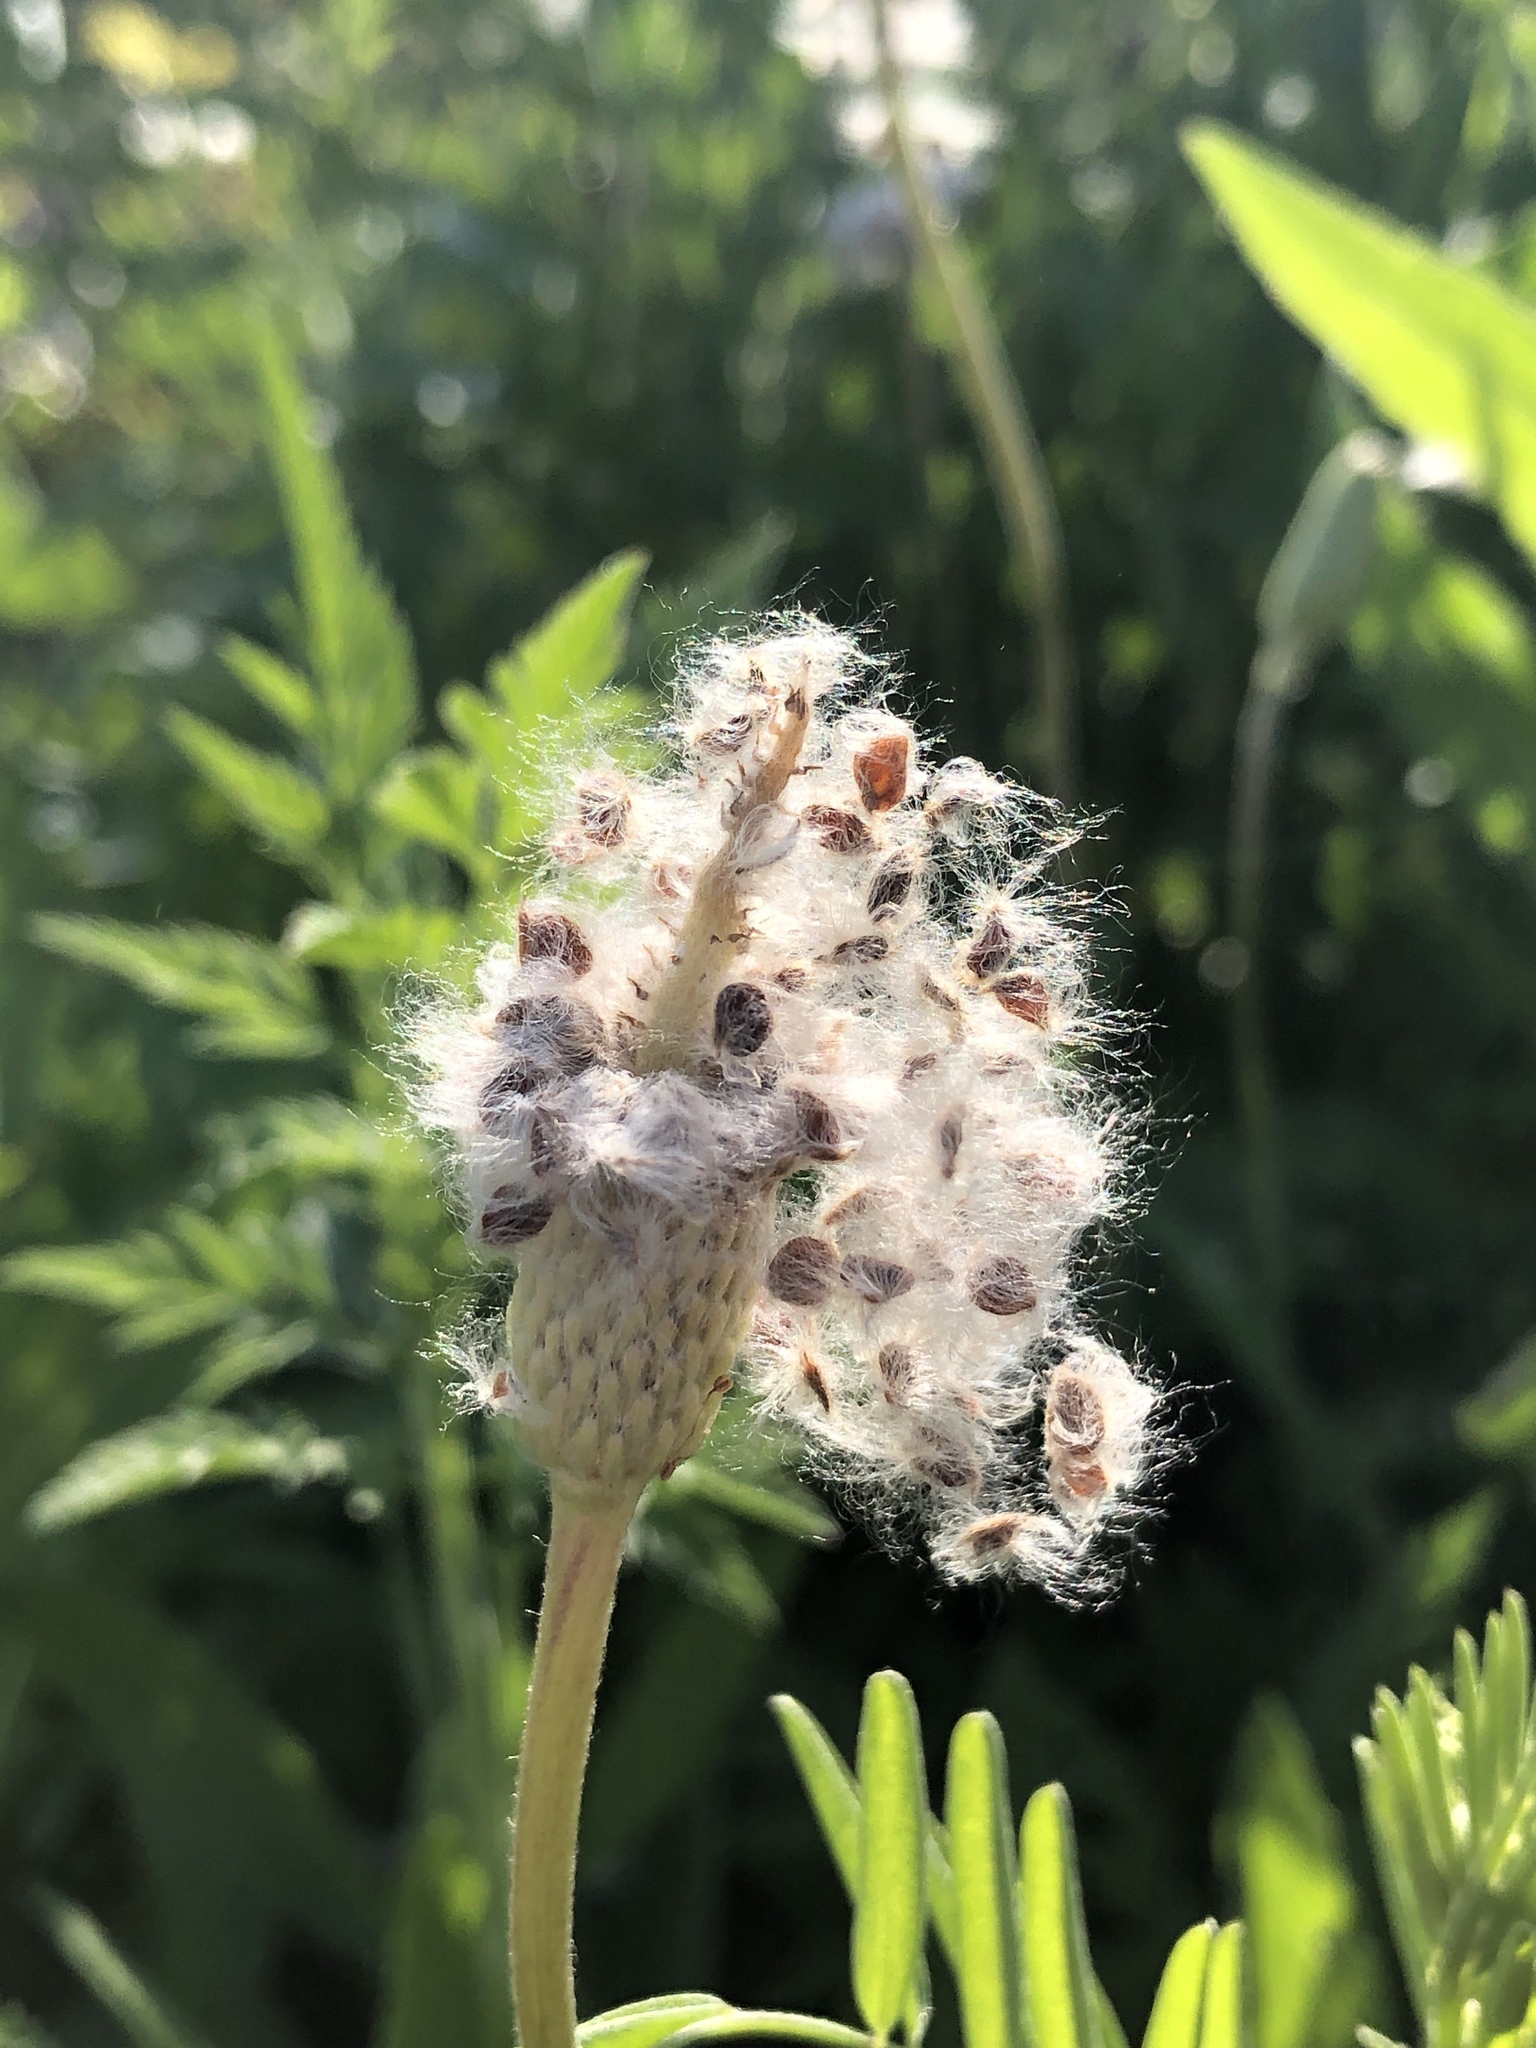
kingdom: Plantae
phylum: Tracheophyta
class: Magnoliopsida
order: Ranunculales
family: Ranunculaceae
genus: Anemone
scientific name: Anemone berlandieri
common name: Ten-petal anemone
